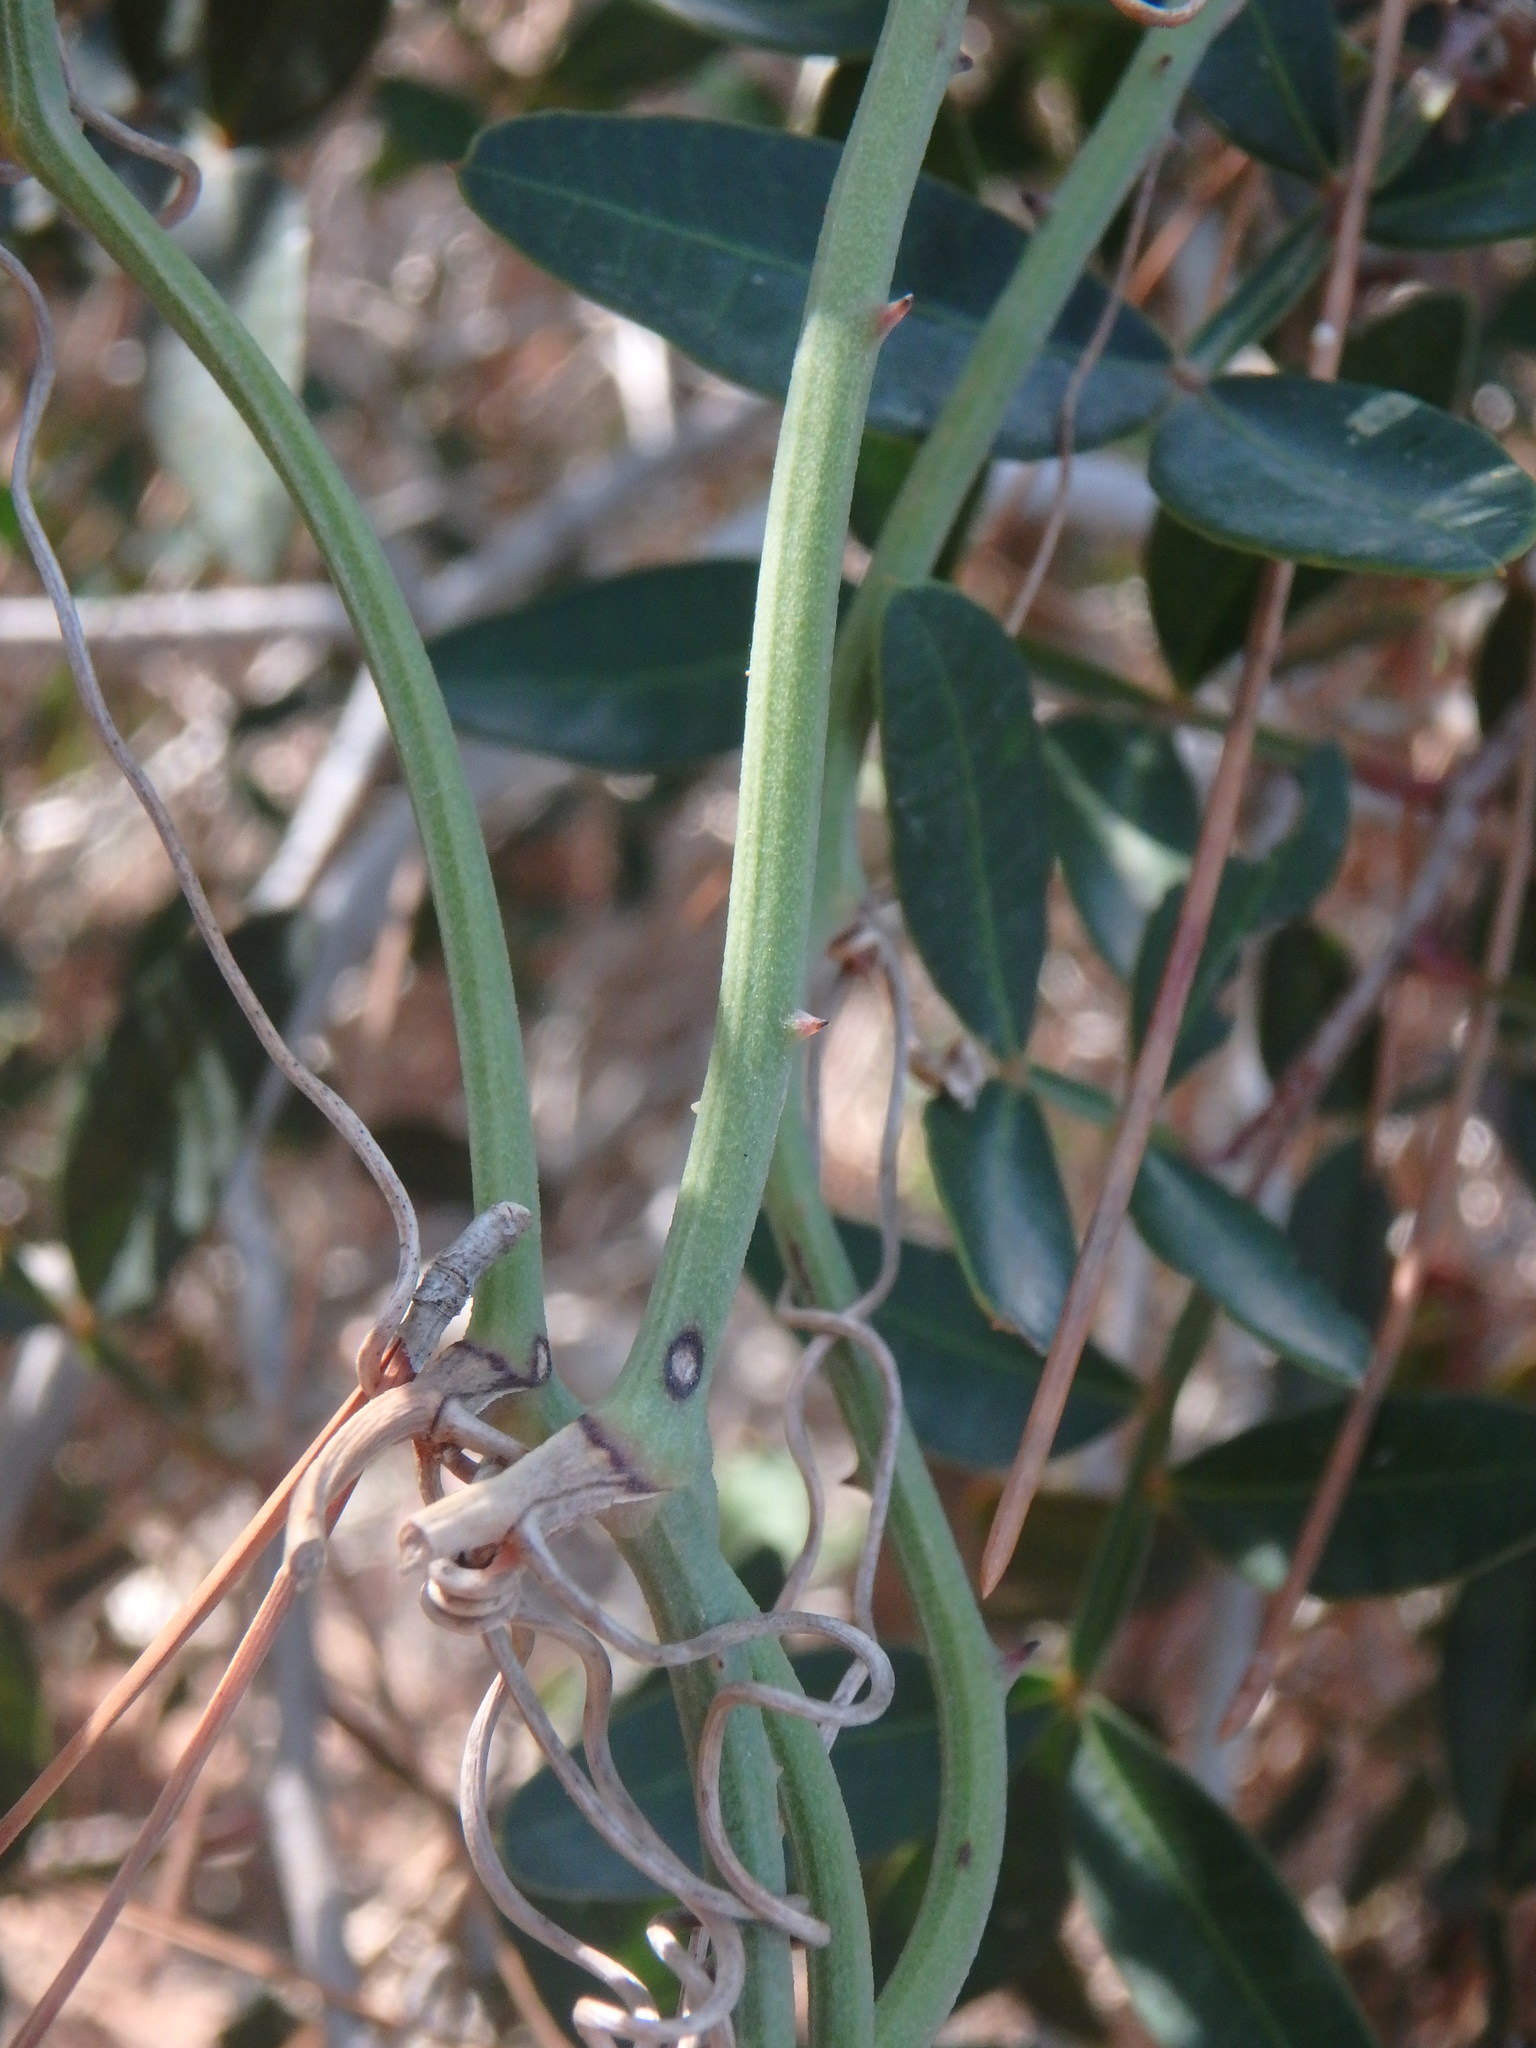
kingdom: Plantae
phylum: Tracheophyta
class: Liliopsida
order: Liliales
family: Smilacaceae
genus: Smilax
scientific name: Smilax aspera
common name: Common smilax
